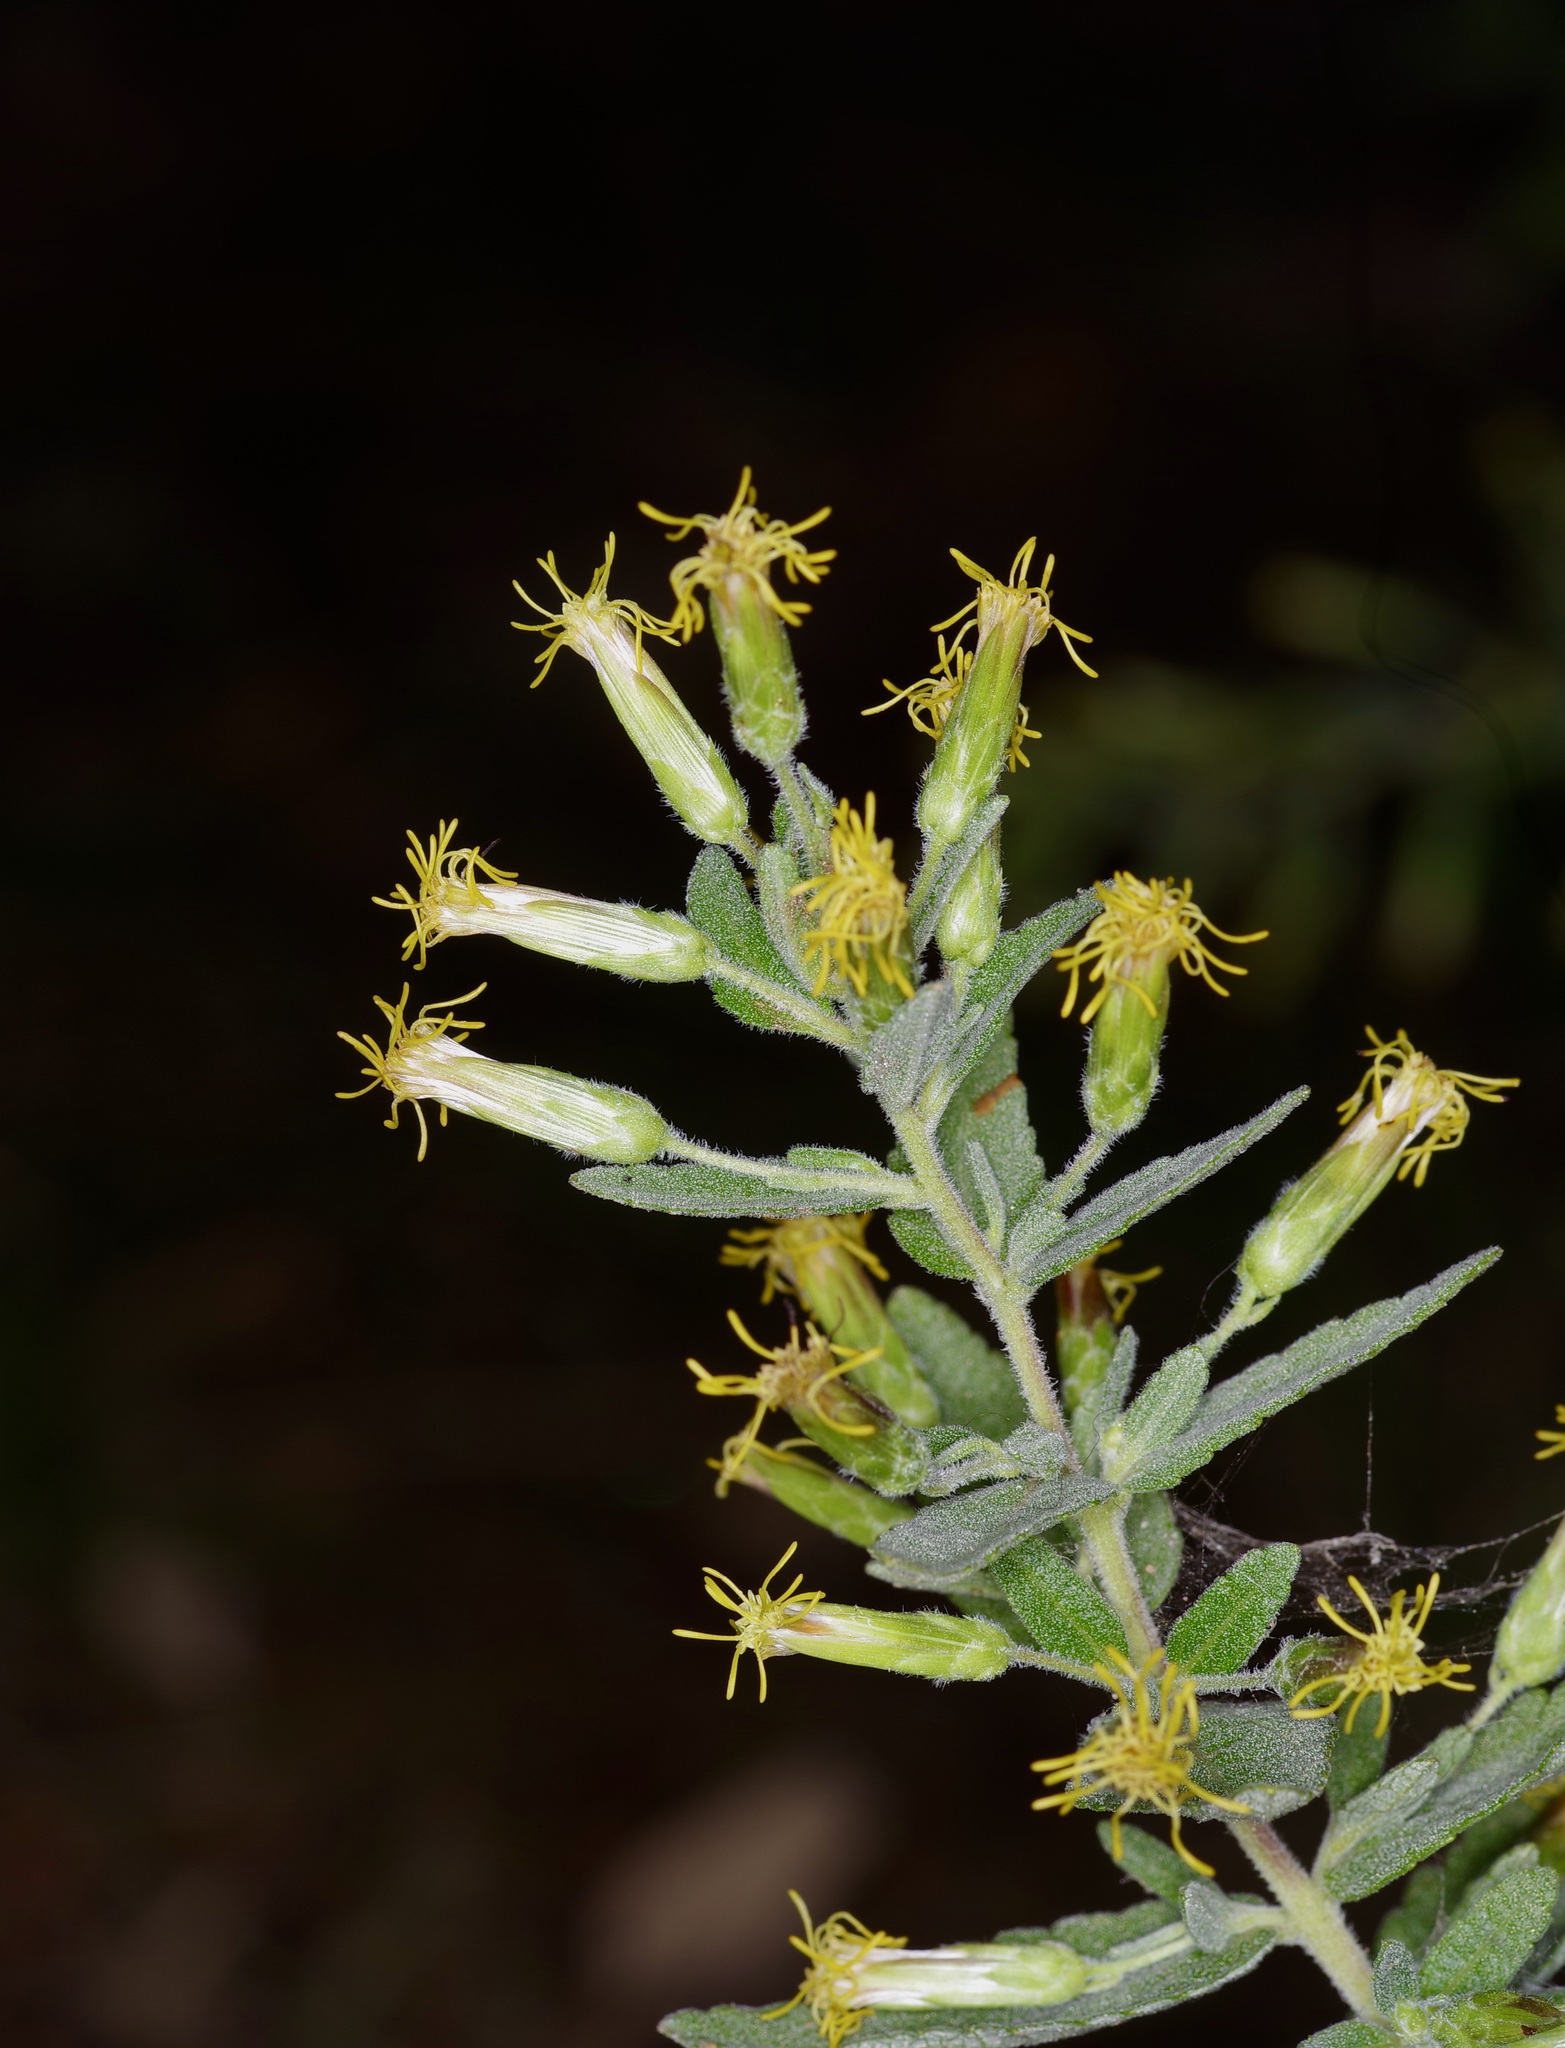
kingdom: Plantae
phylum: Tracheophyta
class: Magnoliopsida
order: Asterales
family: Asteraceae
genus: Brickellia
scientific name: Brickellia cylindracea
